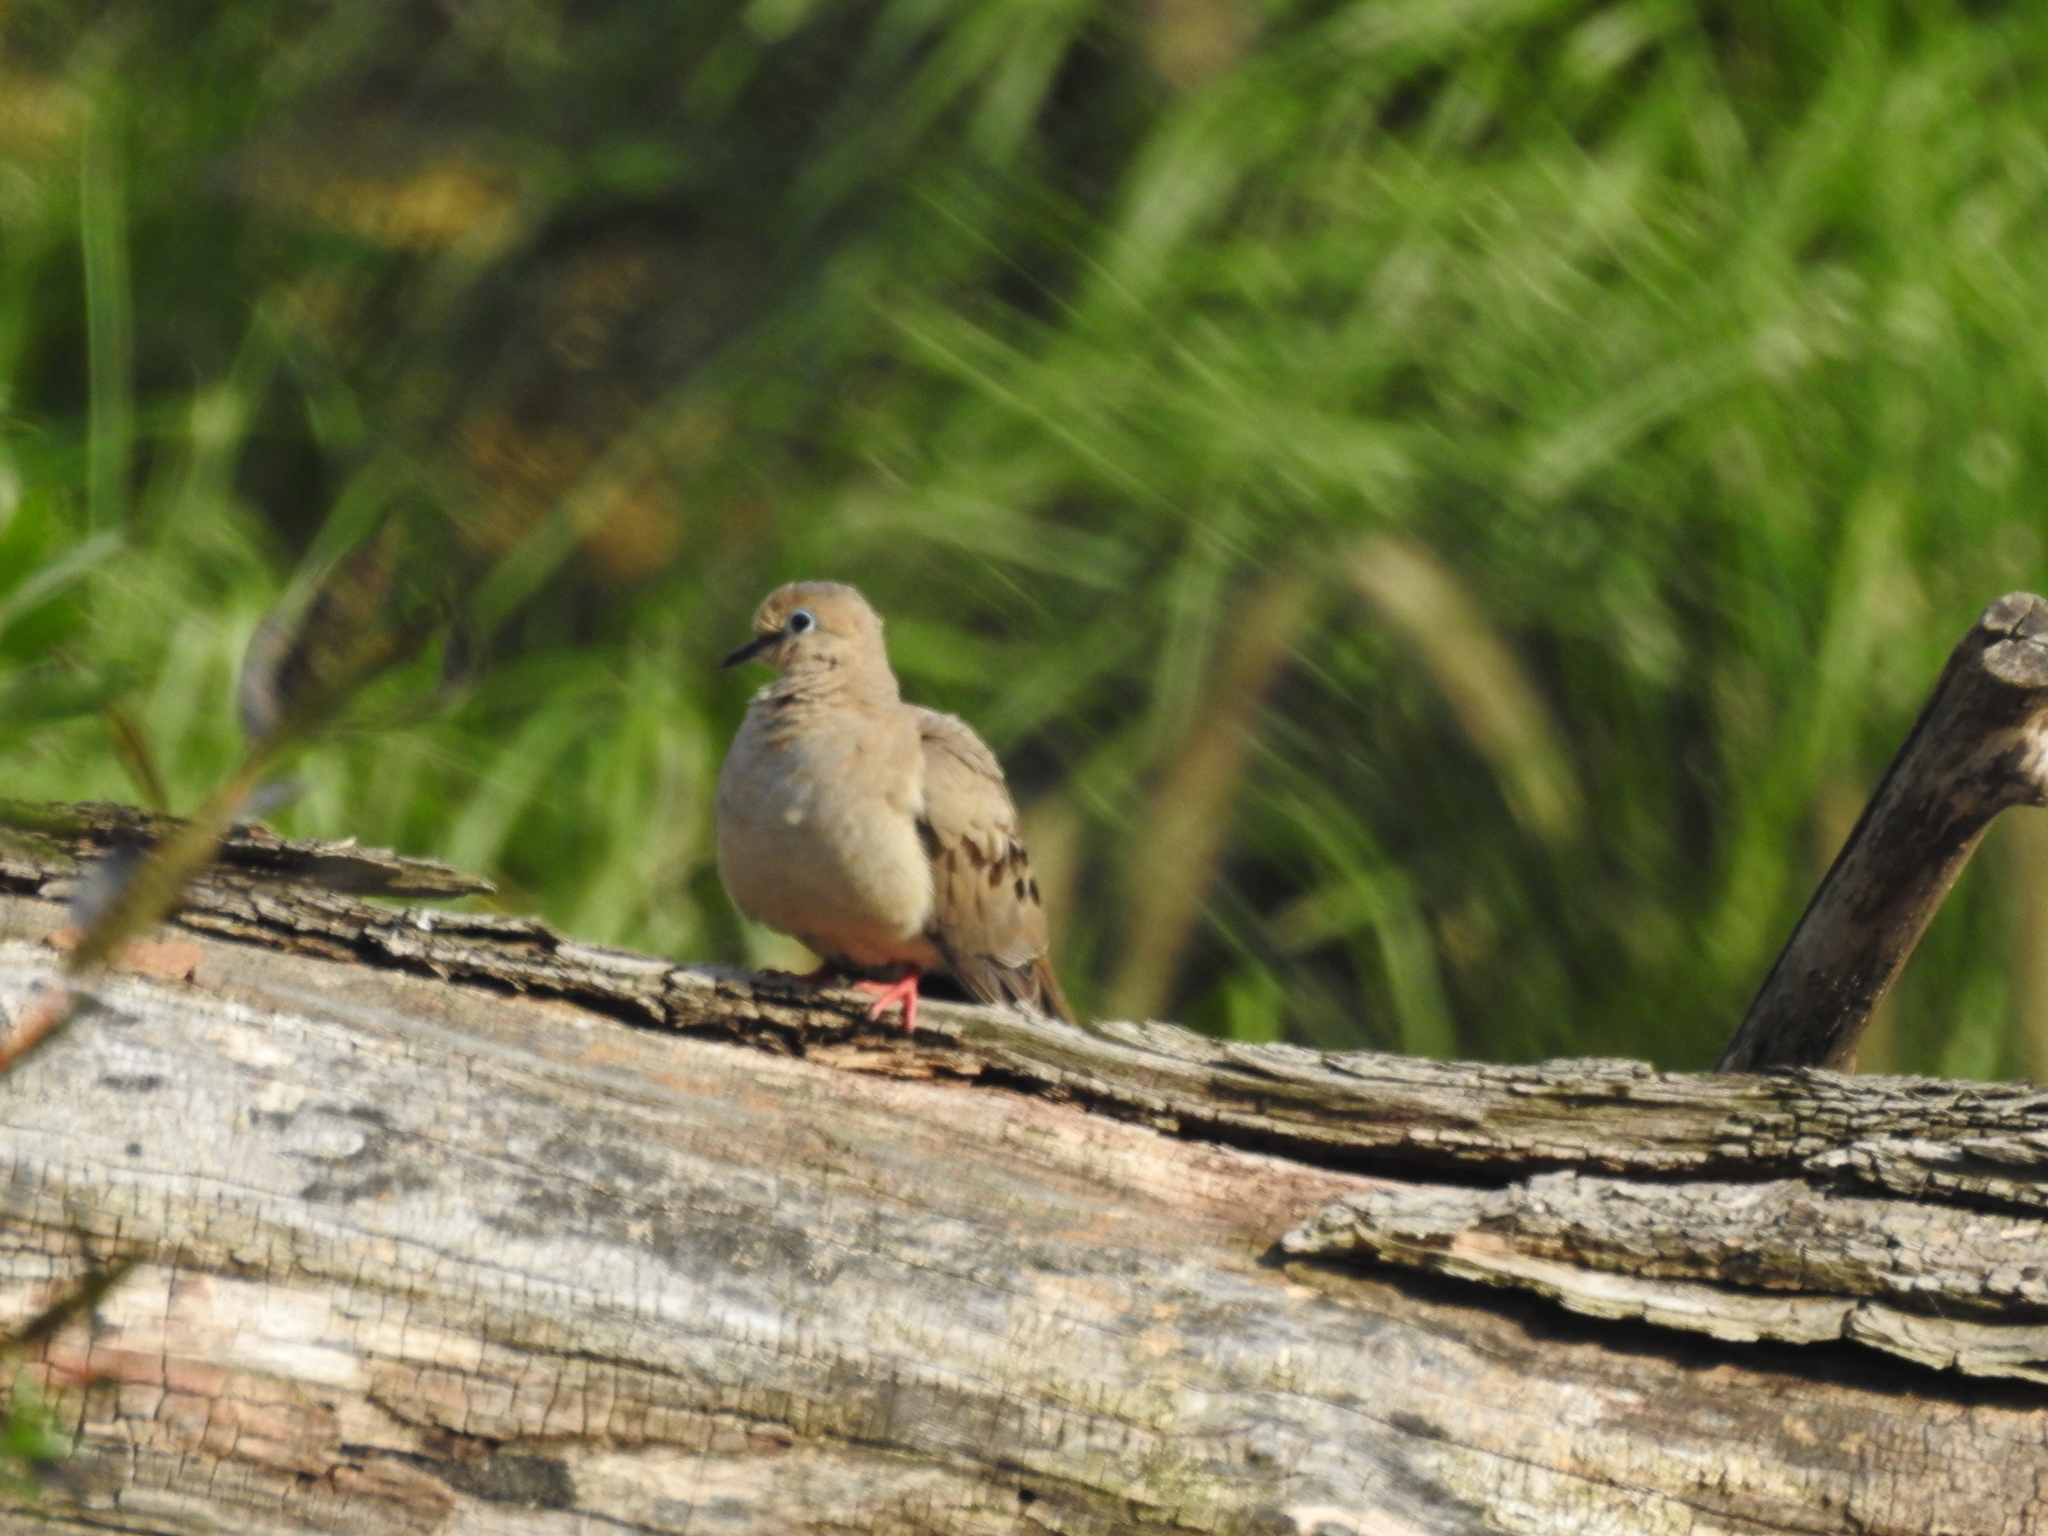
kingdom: Animalia
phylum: Chordata
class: Aves
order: Columbiformes
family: Columbidae
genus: Zenaida
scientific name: Zenaida macroura
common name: Mourning dove
